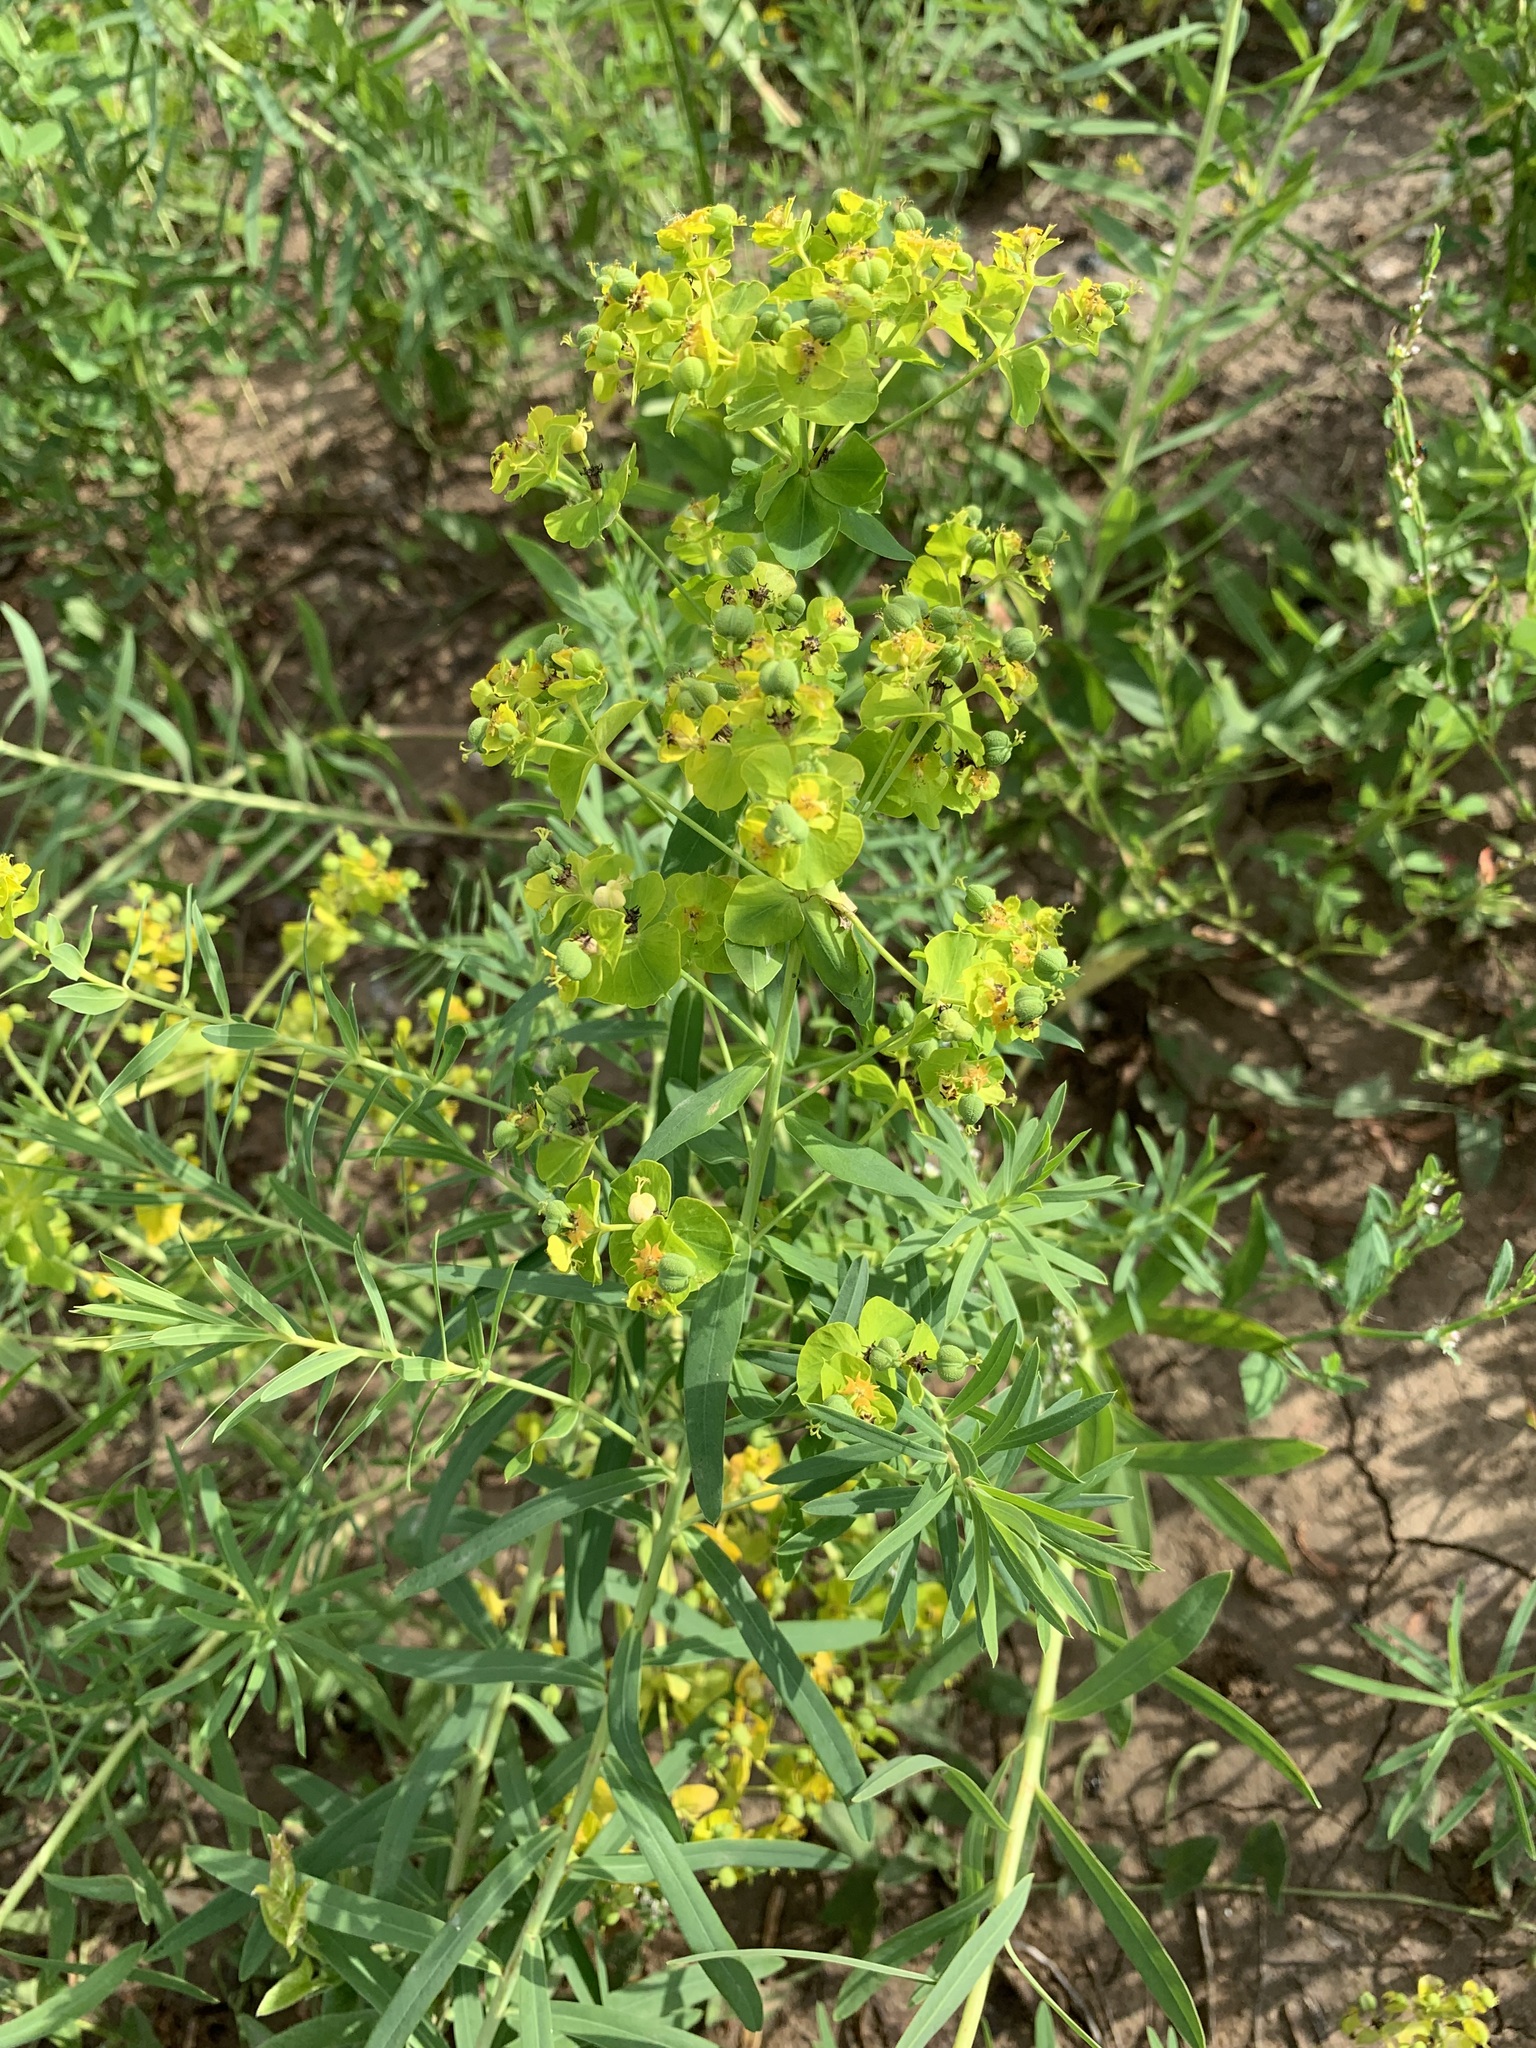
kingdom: Plantae
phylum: Tracheophyta
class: Magnoliopsida
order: Malpighiales
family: Euphorbiaceae
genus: Euphorbia
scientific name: Euphorbia virgata
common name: Leafy spurge
